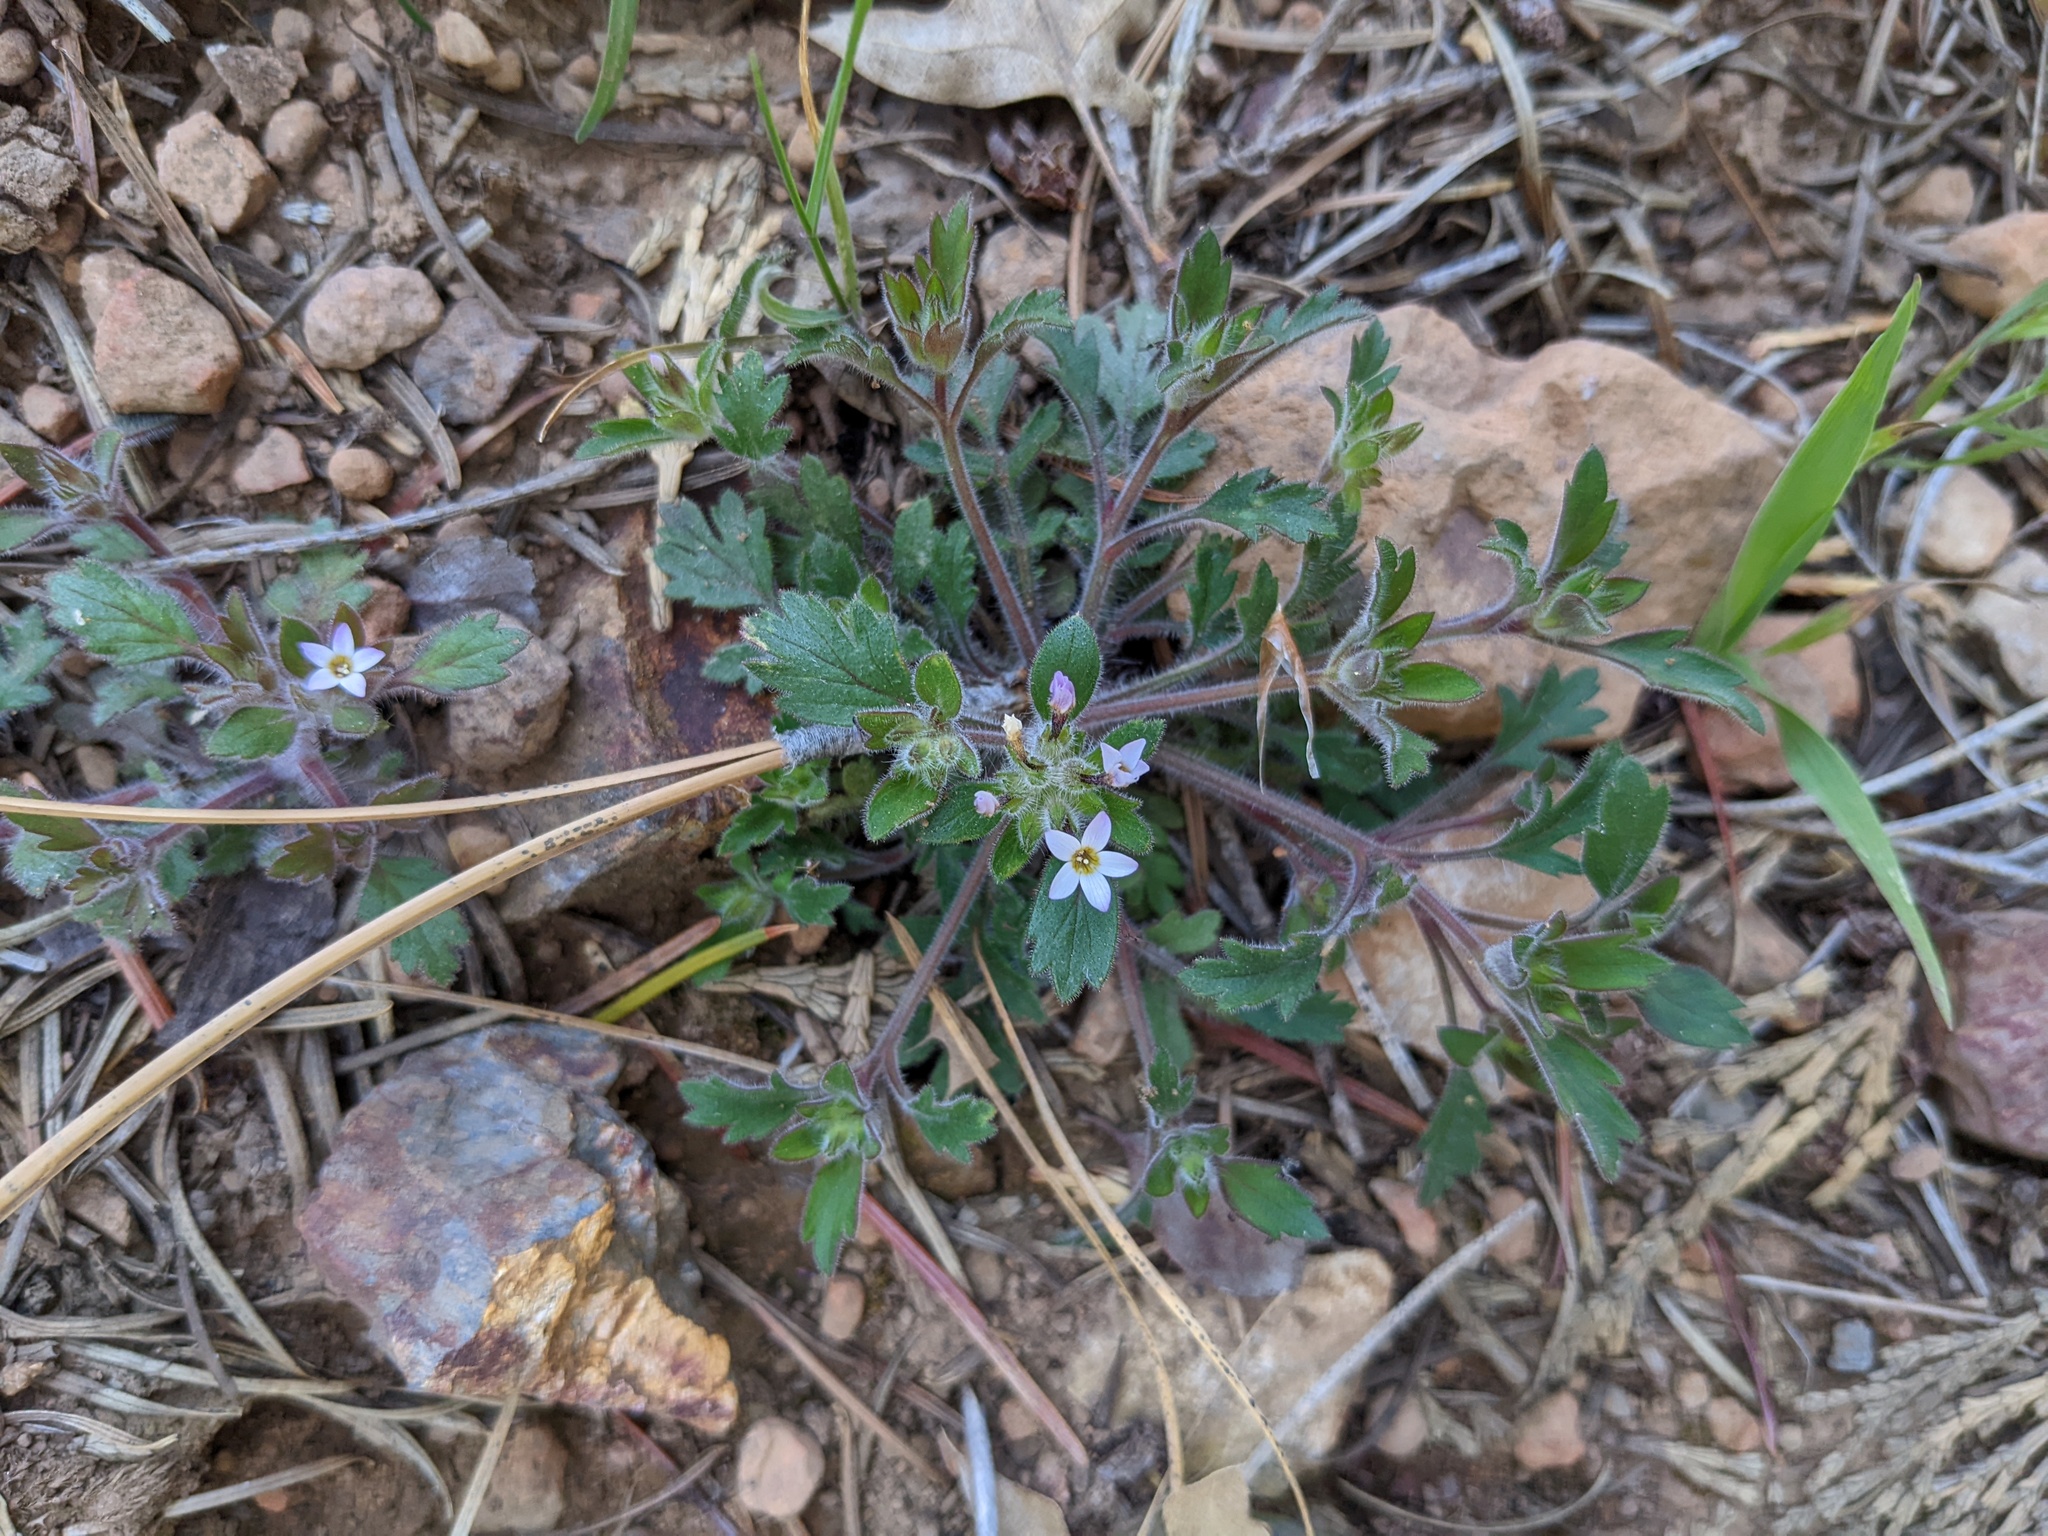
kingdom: Plantae
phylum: Tracheophyta
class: Magnoliopsida
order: Ericales
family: Polemoniaceae
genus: Collomia
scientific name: Collomia heterophylla
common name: Variable-leaved collomia
